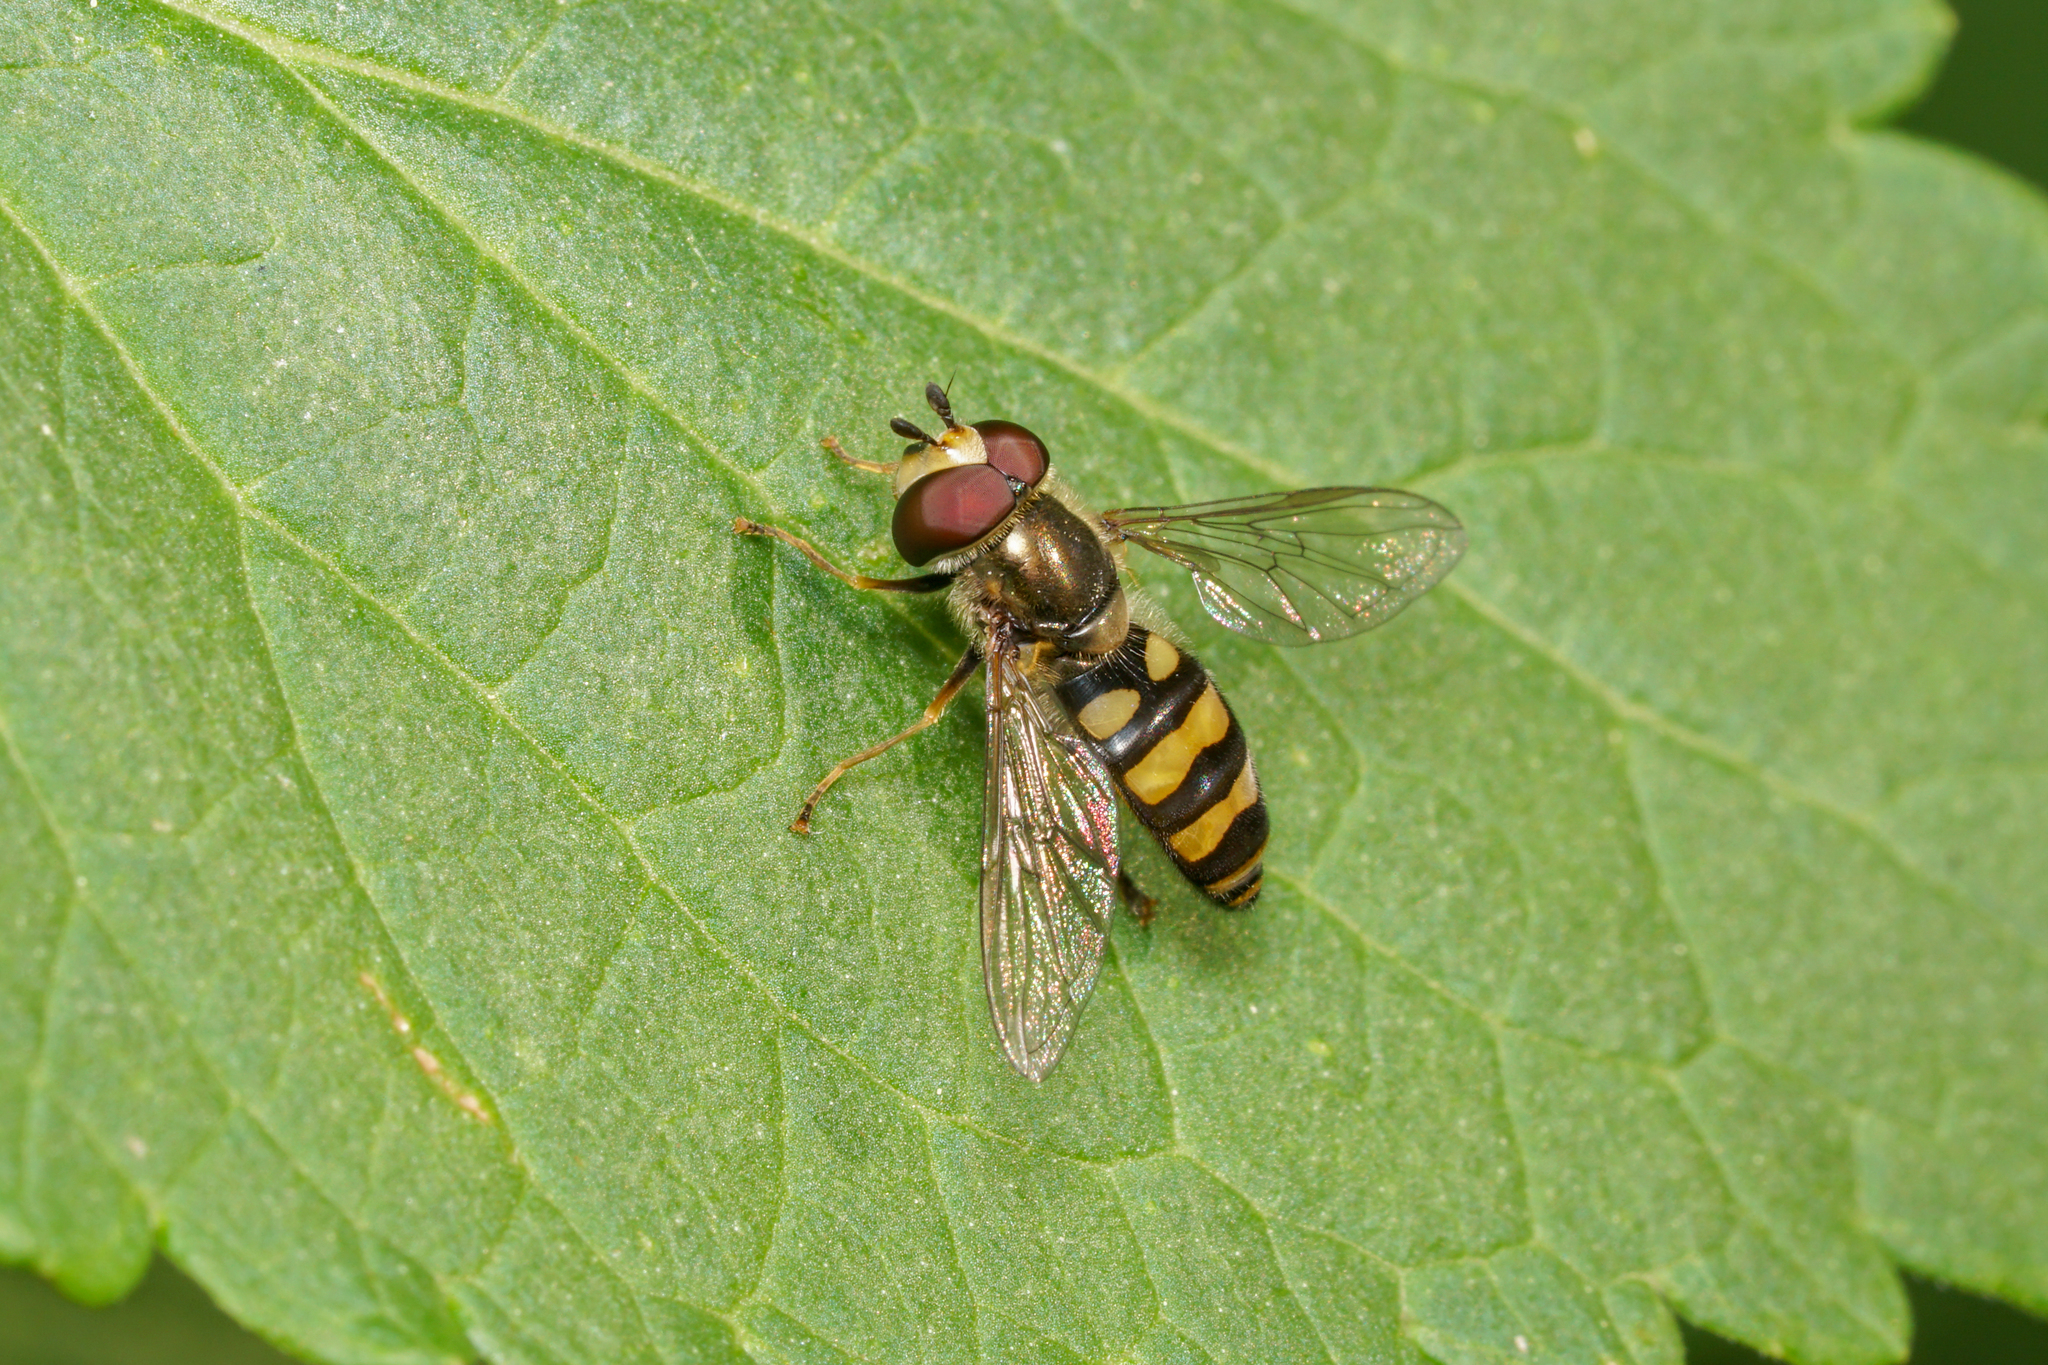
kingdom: Animalia
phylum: Arthropoda
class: Insecta
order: Diptera
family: Syrphidae
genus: Eupeodes
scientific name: Eupeodes
